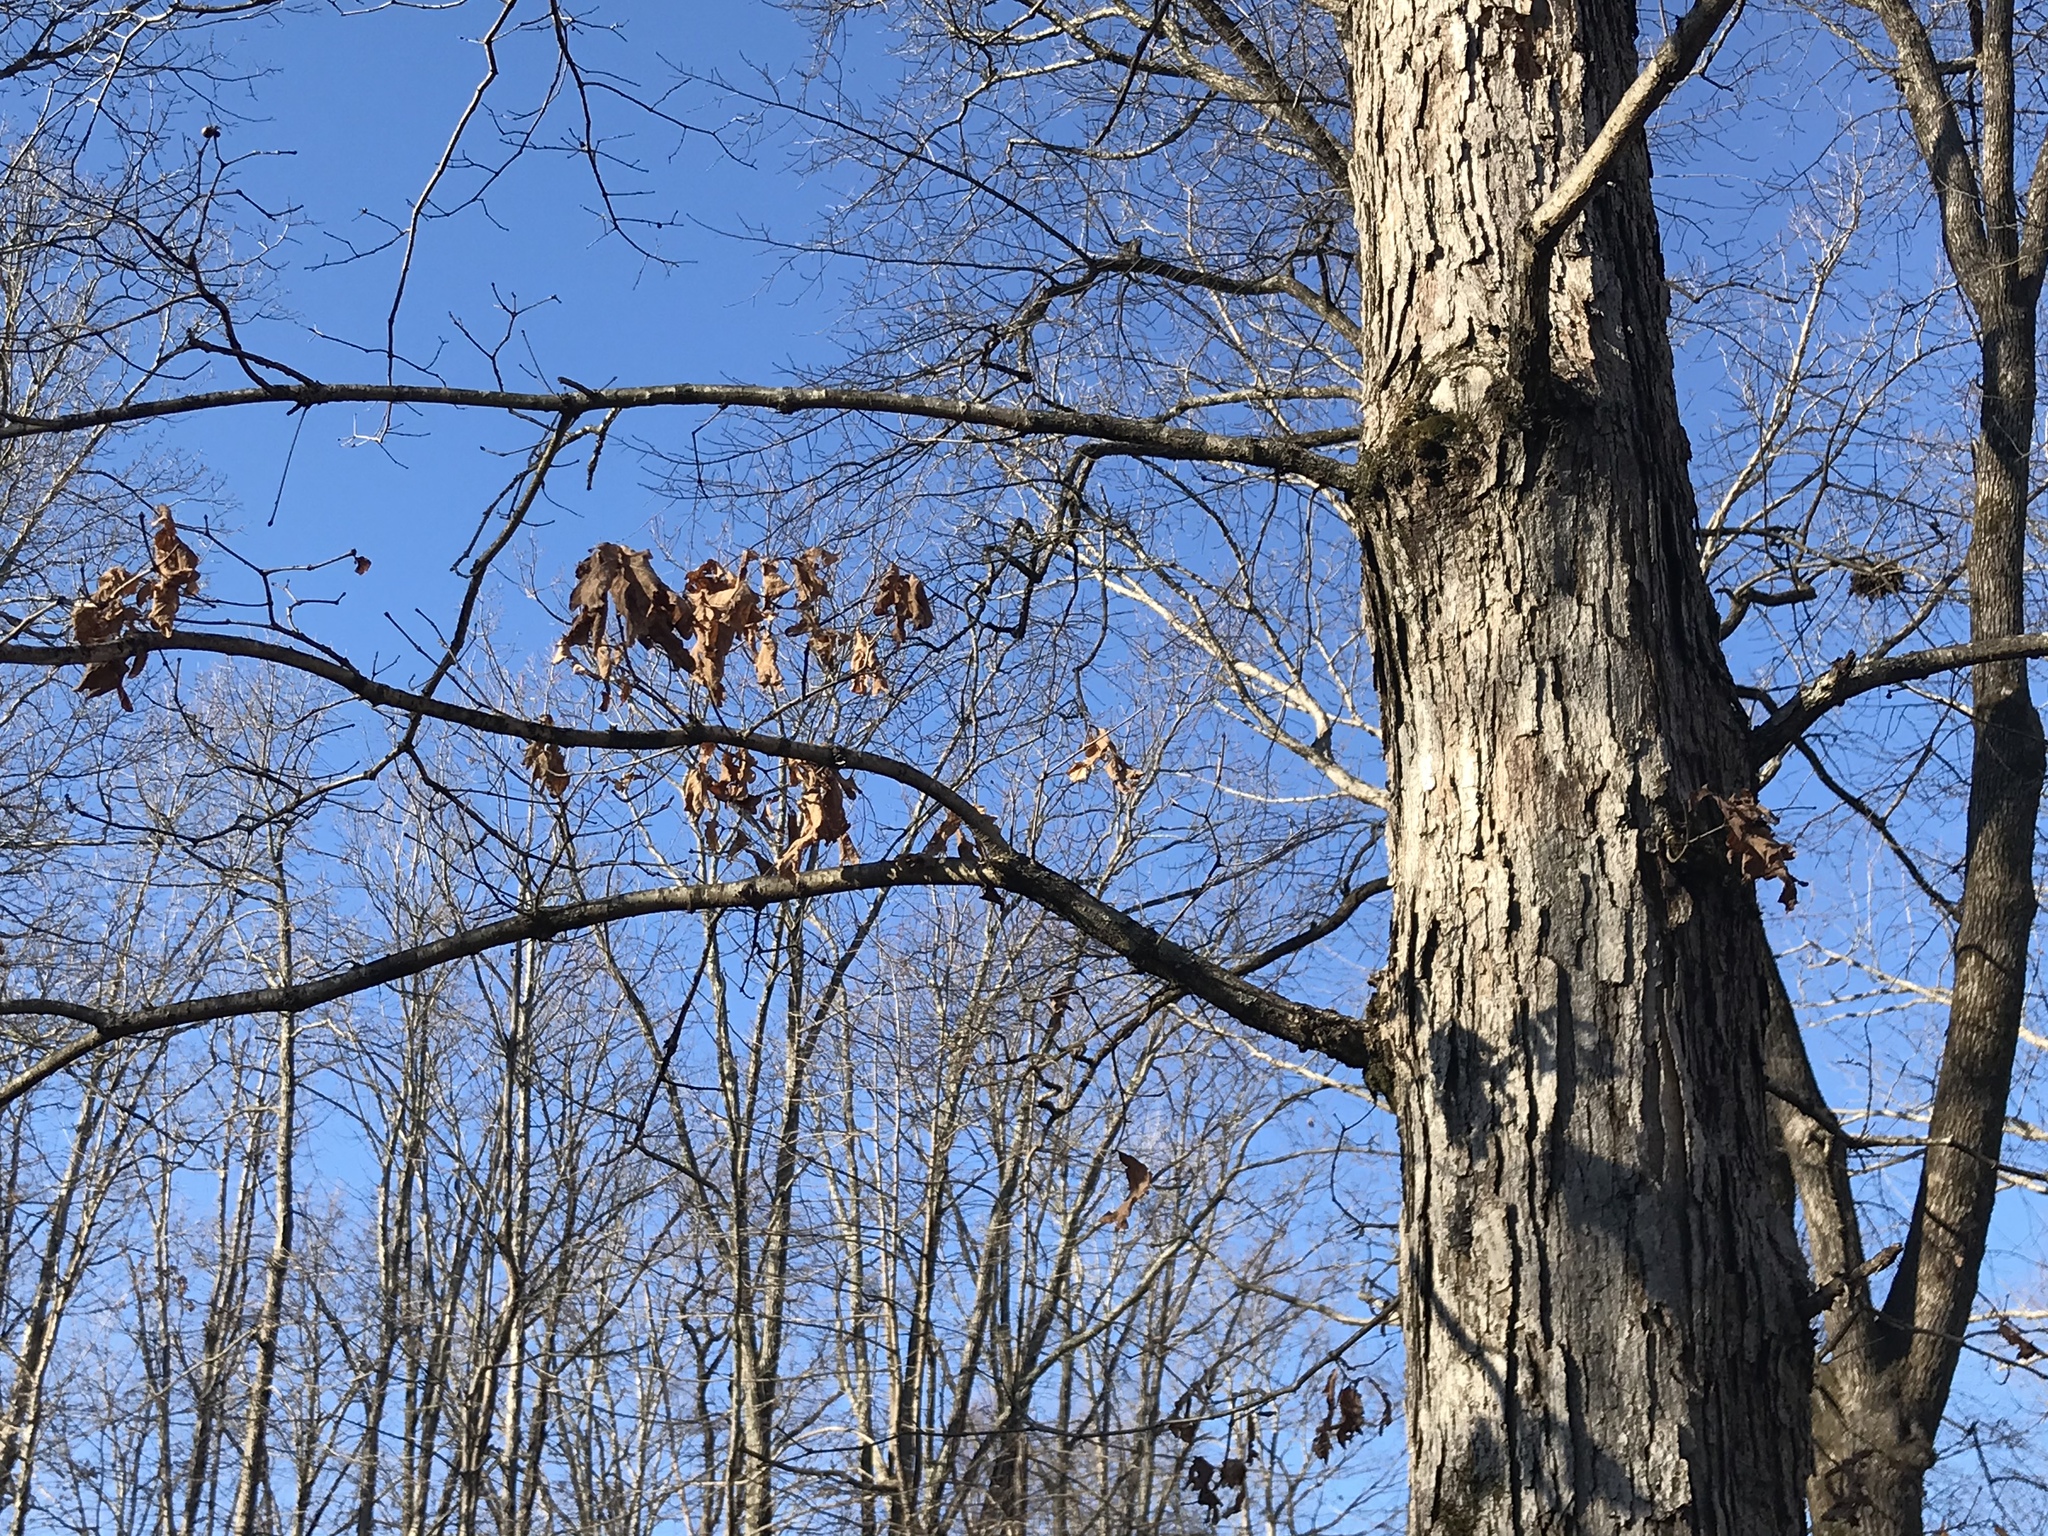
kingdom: Plantae
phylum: Tracheophyta
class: Magnoliopsida
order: Fagales
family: Fagaceae
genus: Quercus
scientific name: Quercus alba
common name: White oak
